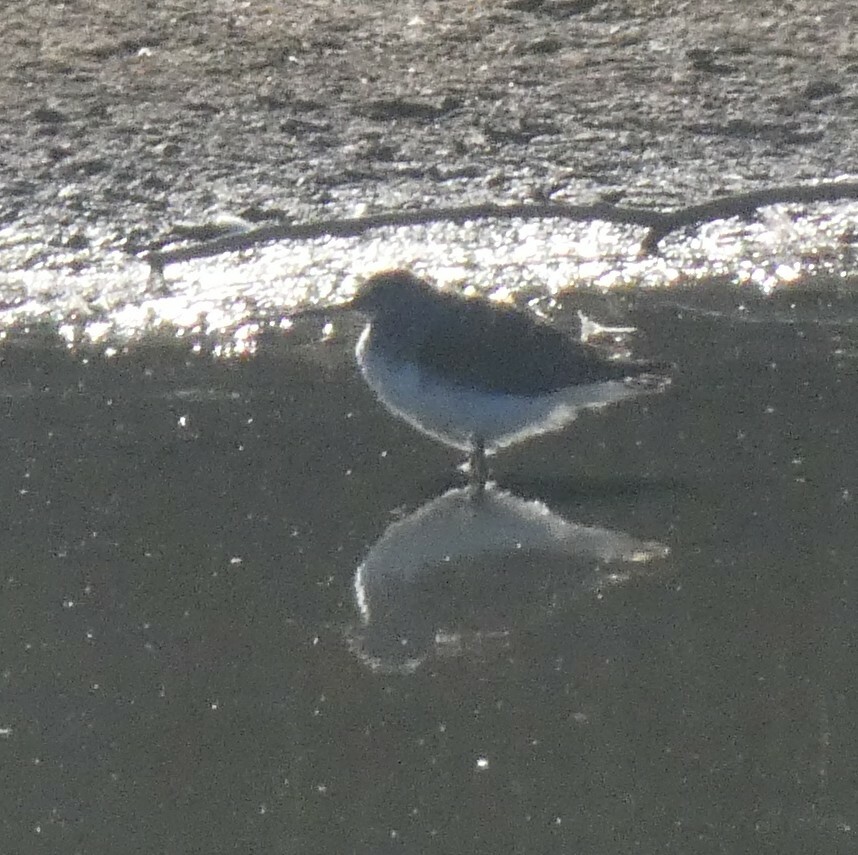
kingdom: Animalia
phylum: Chordata
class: Aves
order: Charadriiformes
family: Scolopacidae
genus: Tringa
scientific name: Tringa ochropus
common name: Green sandpiper
